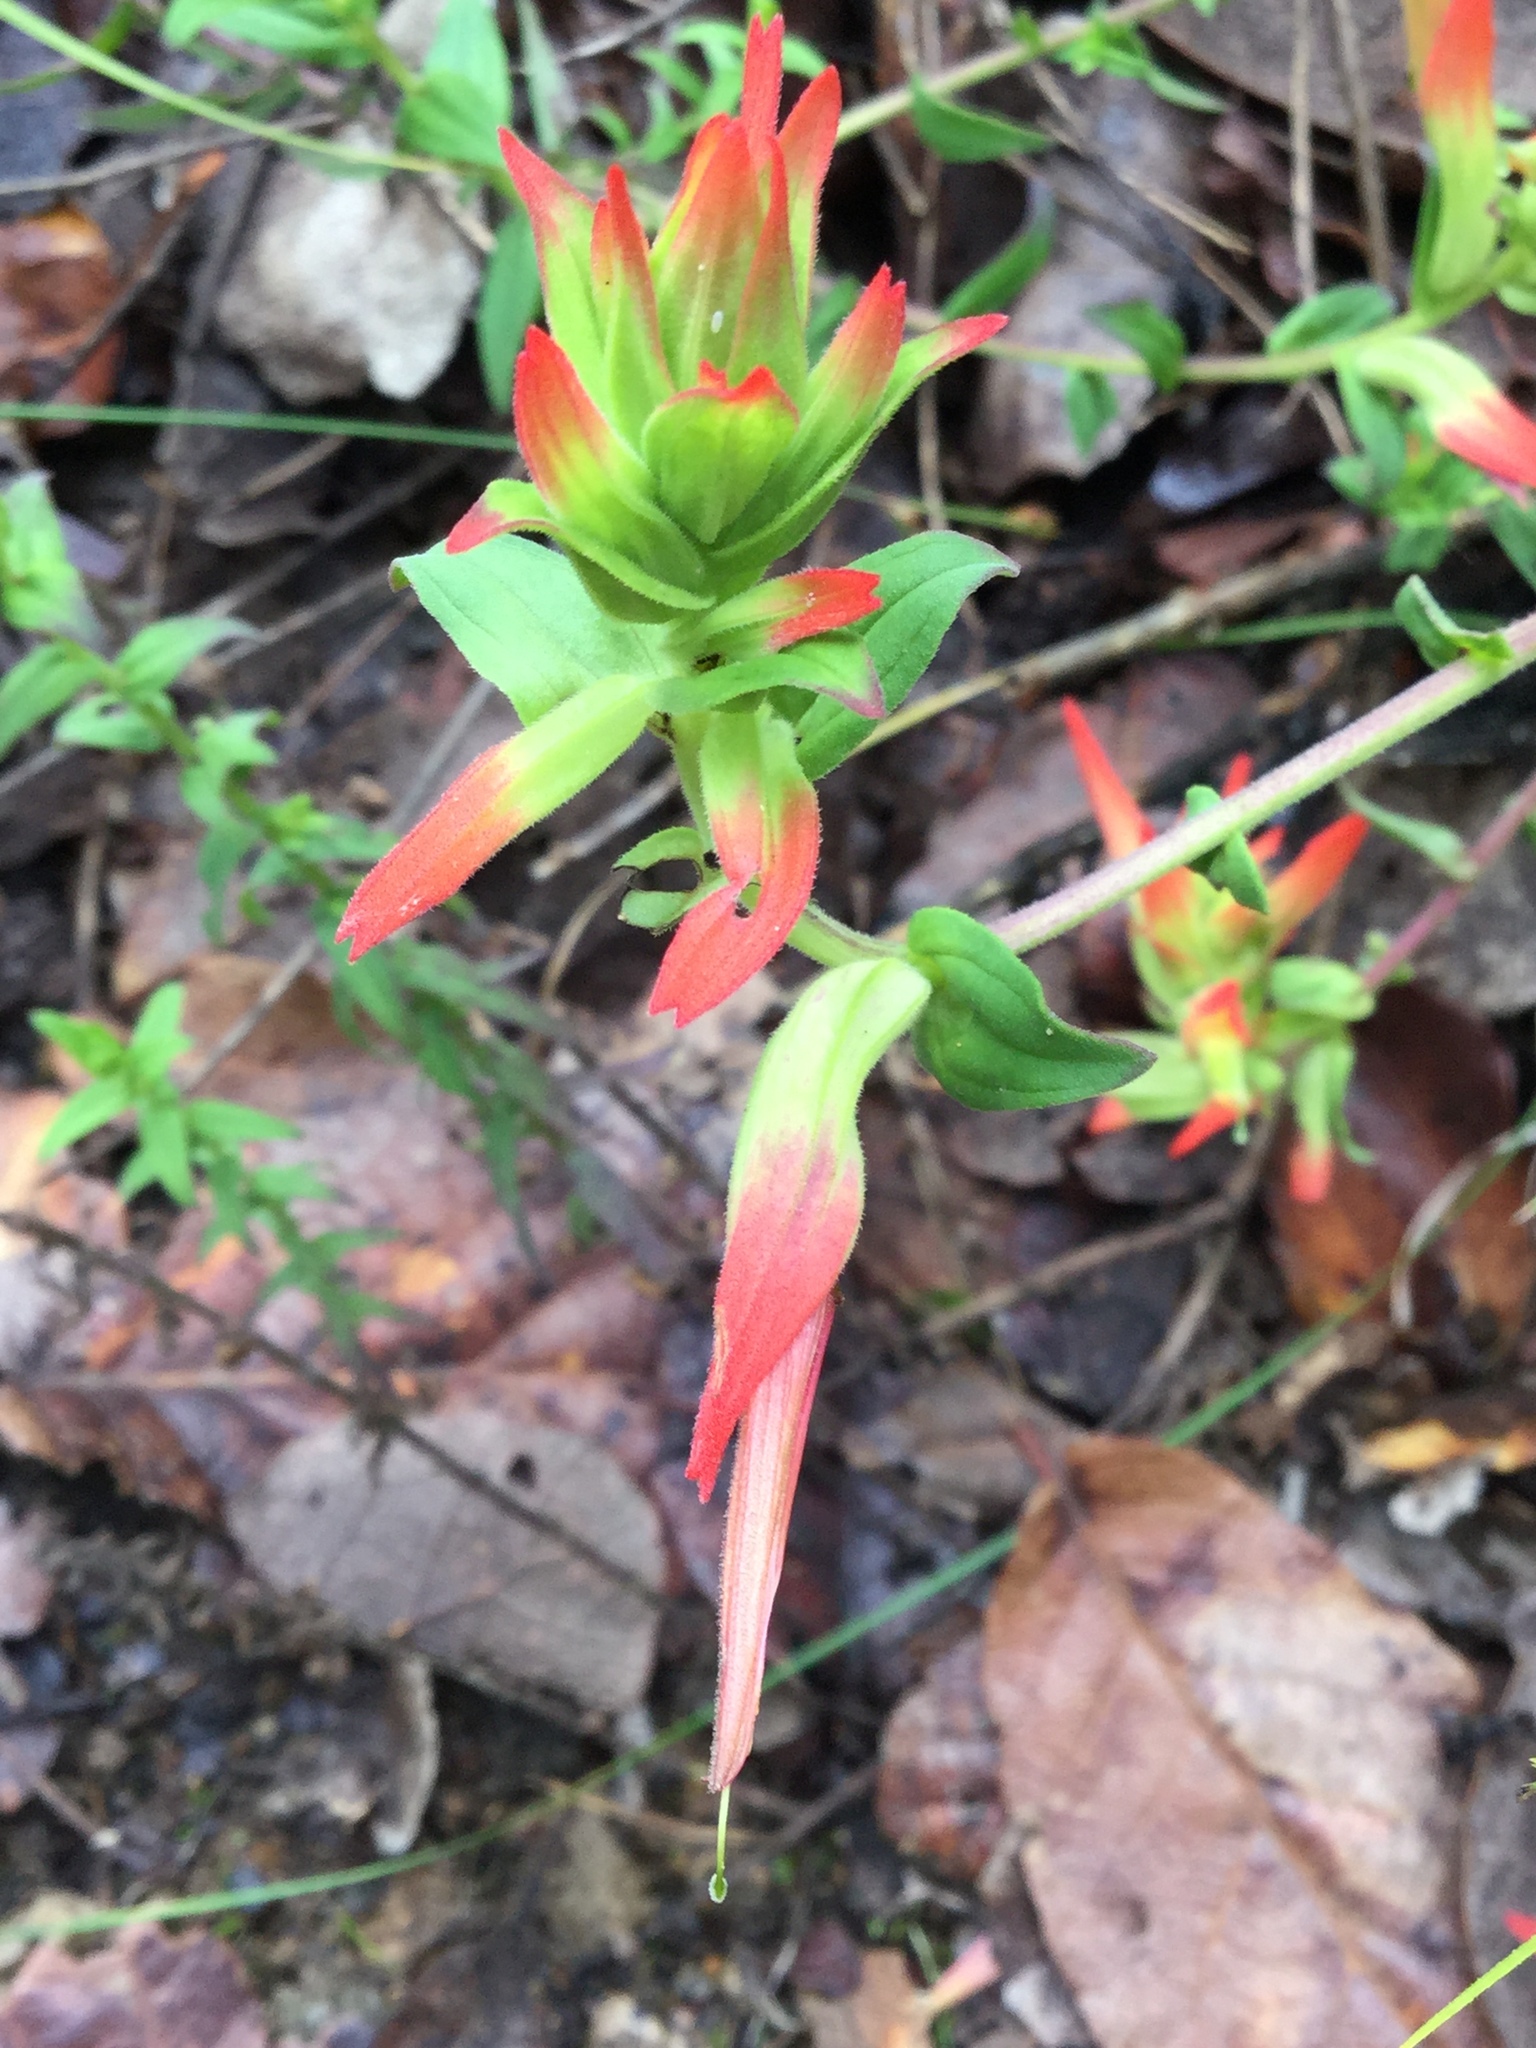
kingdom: Plantae
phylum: Tracheophyta
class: Magnoliopsida
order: Lamiales
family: Orobanchaceae
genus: Castilleja
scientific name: Castilleja tenuiflora
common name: Santa catalina indian paintbrush
